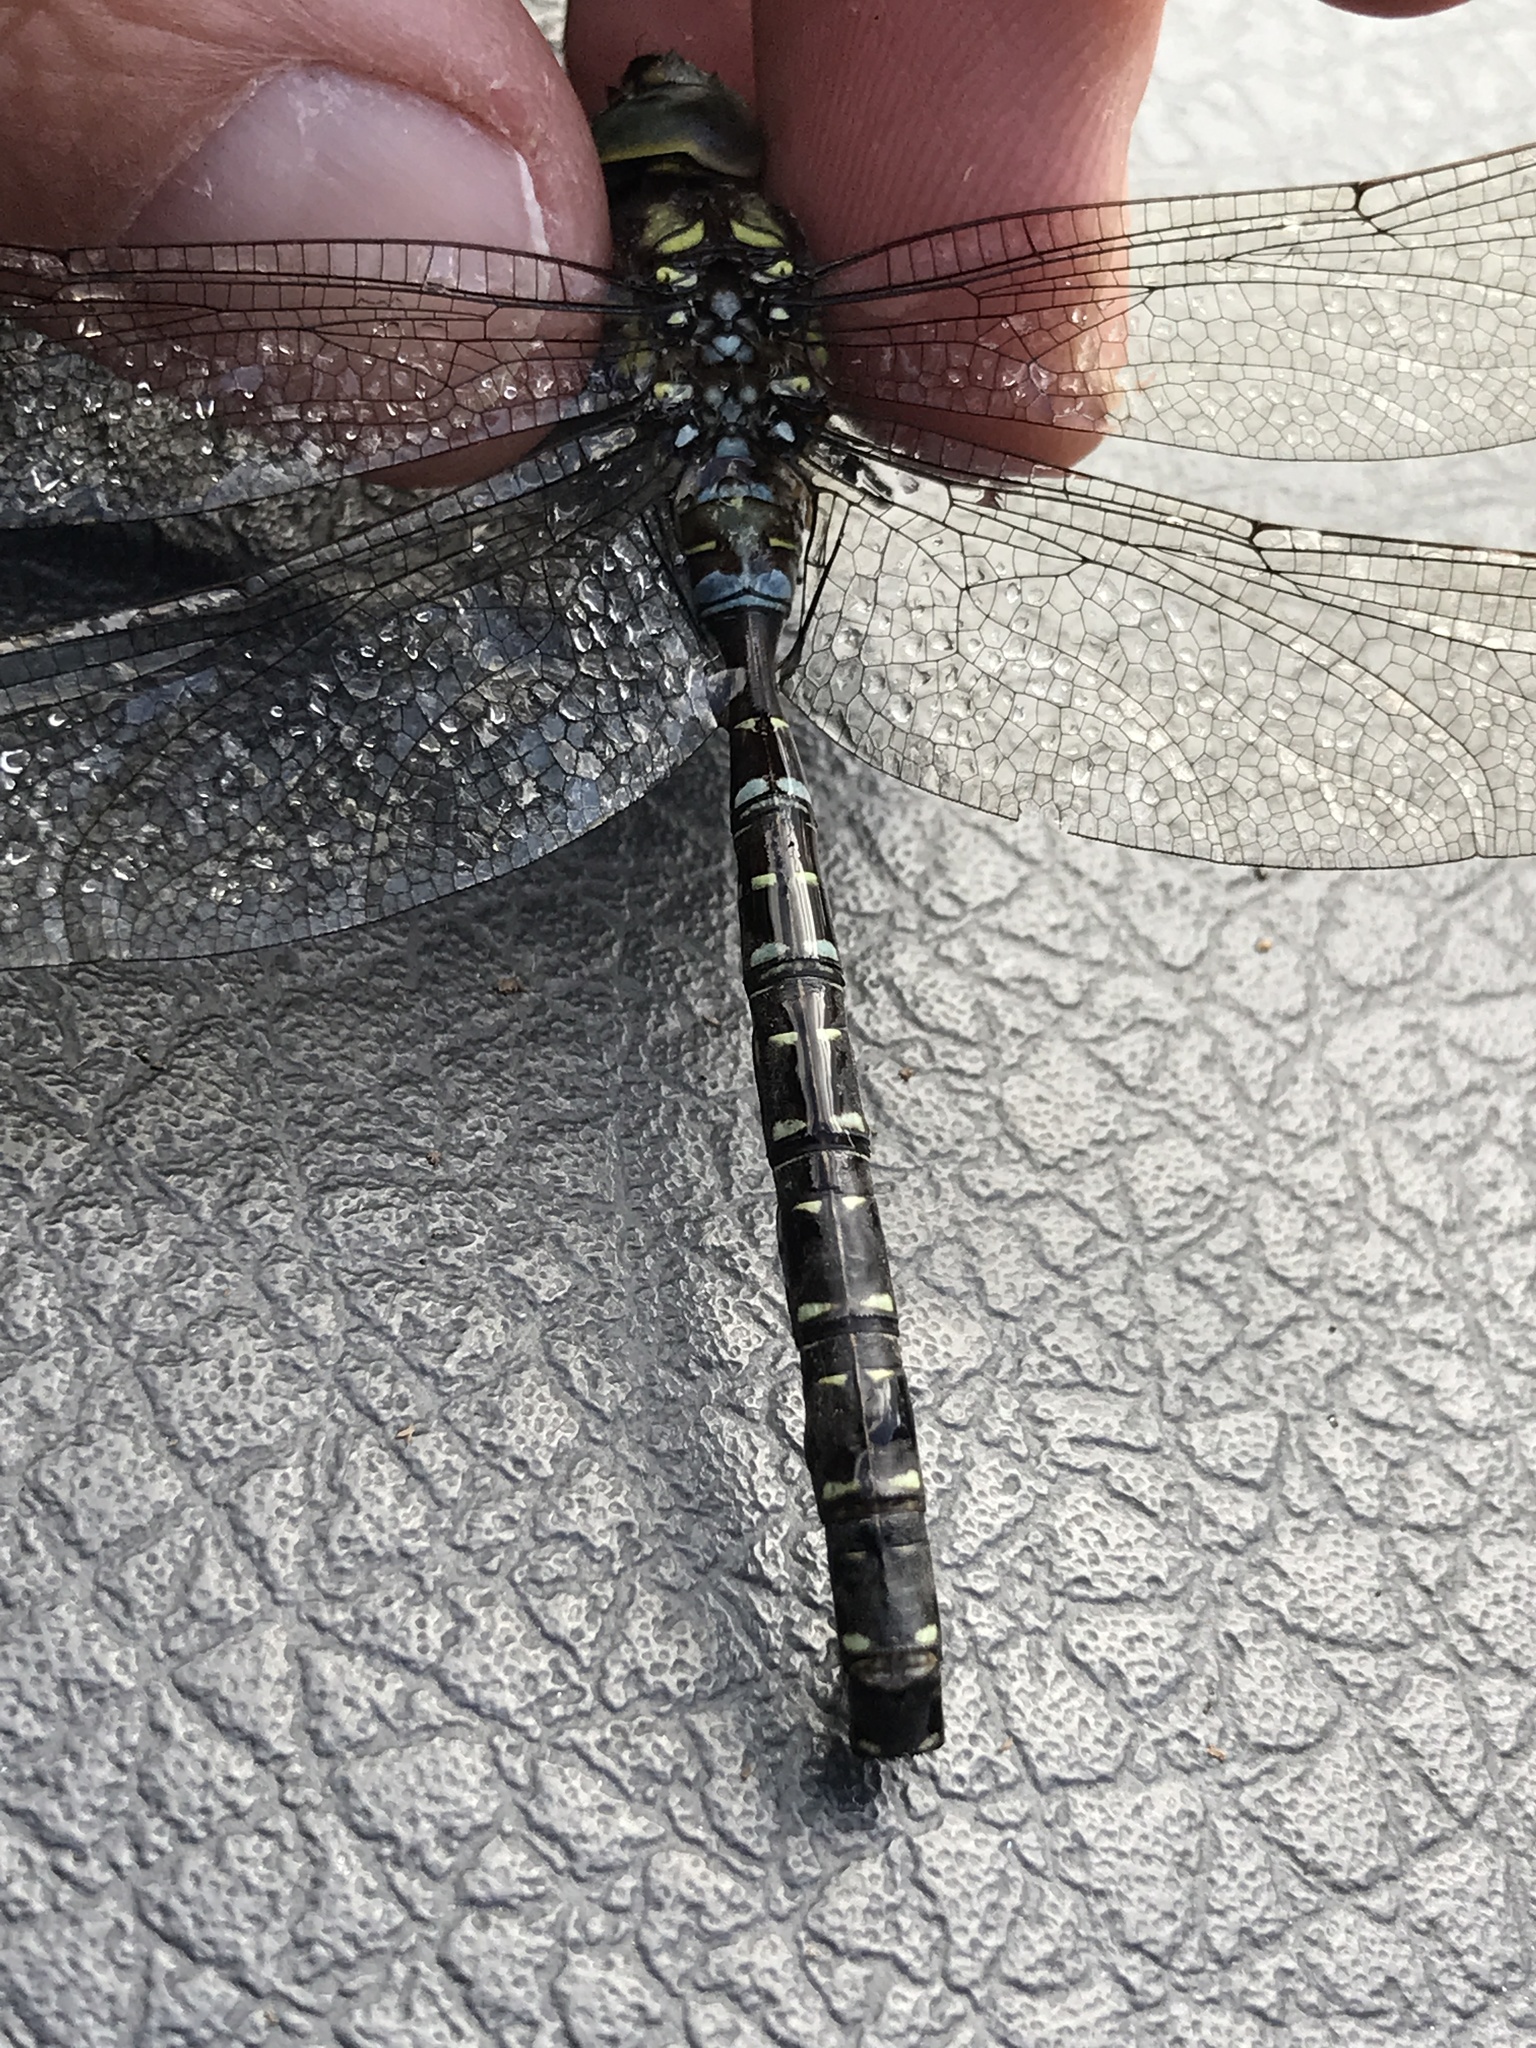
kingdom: Animalia
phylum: Arthropoda
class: Insecta
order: Odonata
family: Aeshnidae
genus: Aeshna
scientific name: Aeshna umbrosa
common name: Shadow darner
